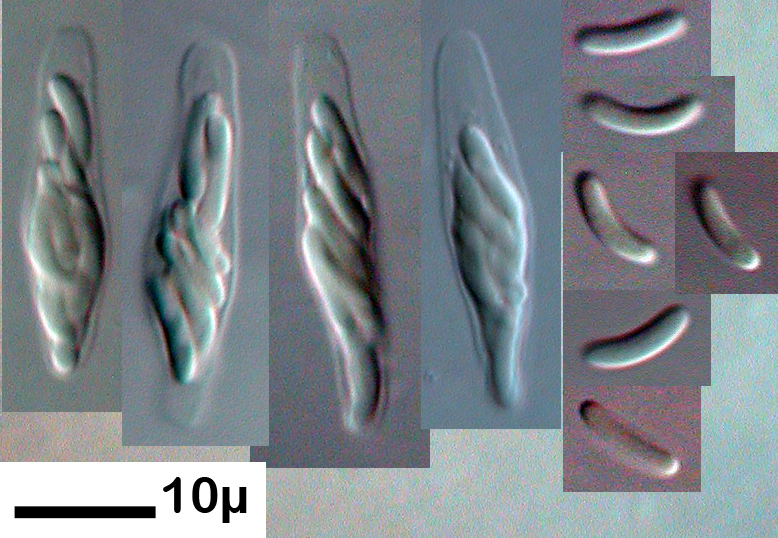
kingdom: Fungi
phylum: Ascomycota
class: Sordariomycetes
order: Diaporthales
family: Valsaceae
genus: Cytospora
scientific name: Cytospora ceratosperma
